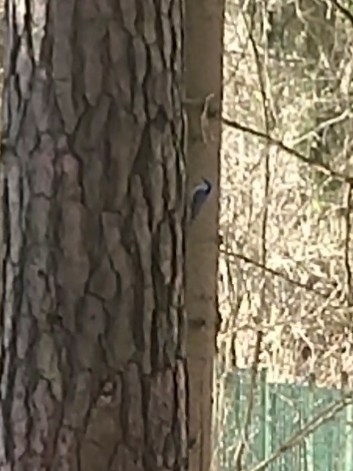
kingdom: Animalia
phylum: Chordata
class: Aves
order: Passeriformes
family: Sittidae
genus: Sitta
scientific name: Sitta europaea
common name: Eurasian nuthatch
